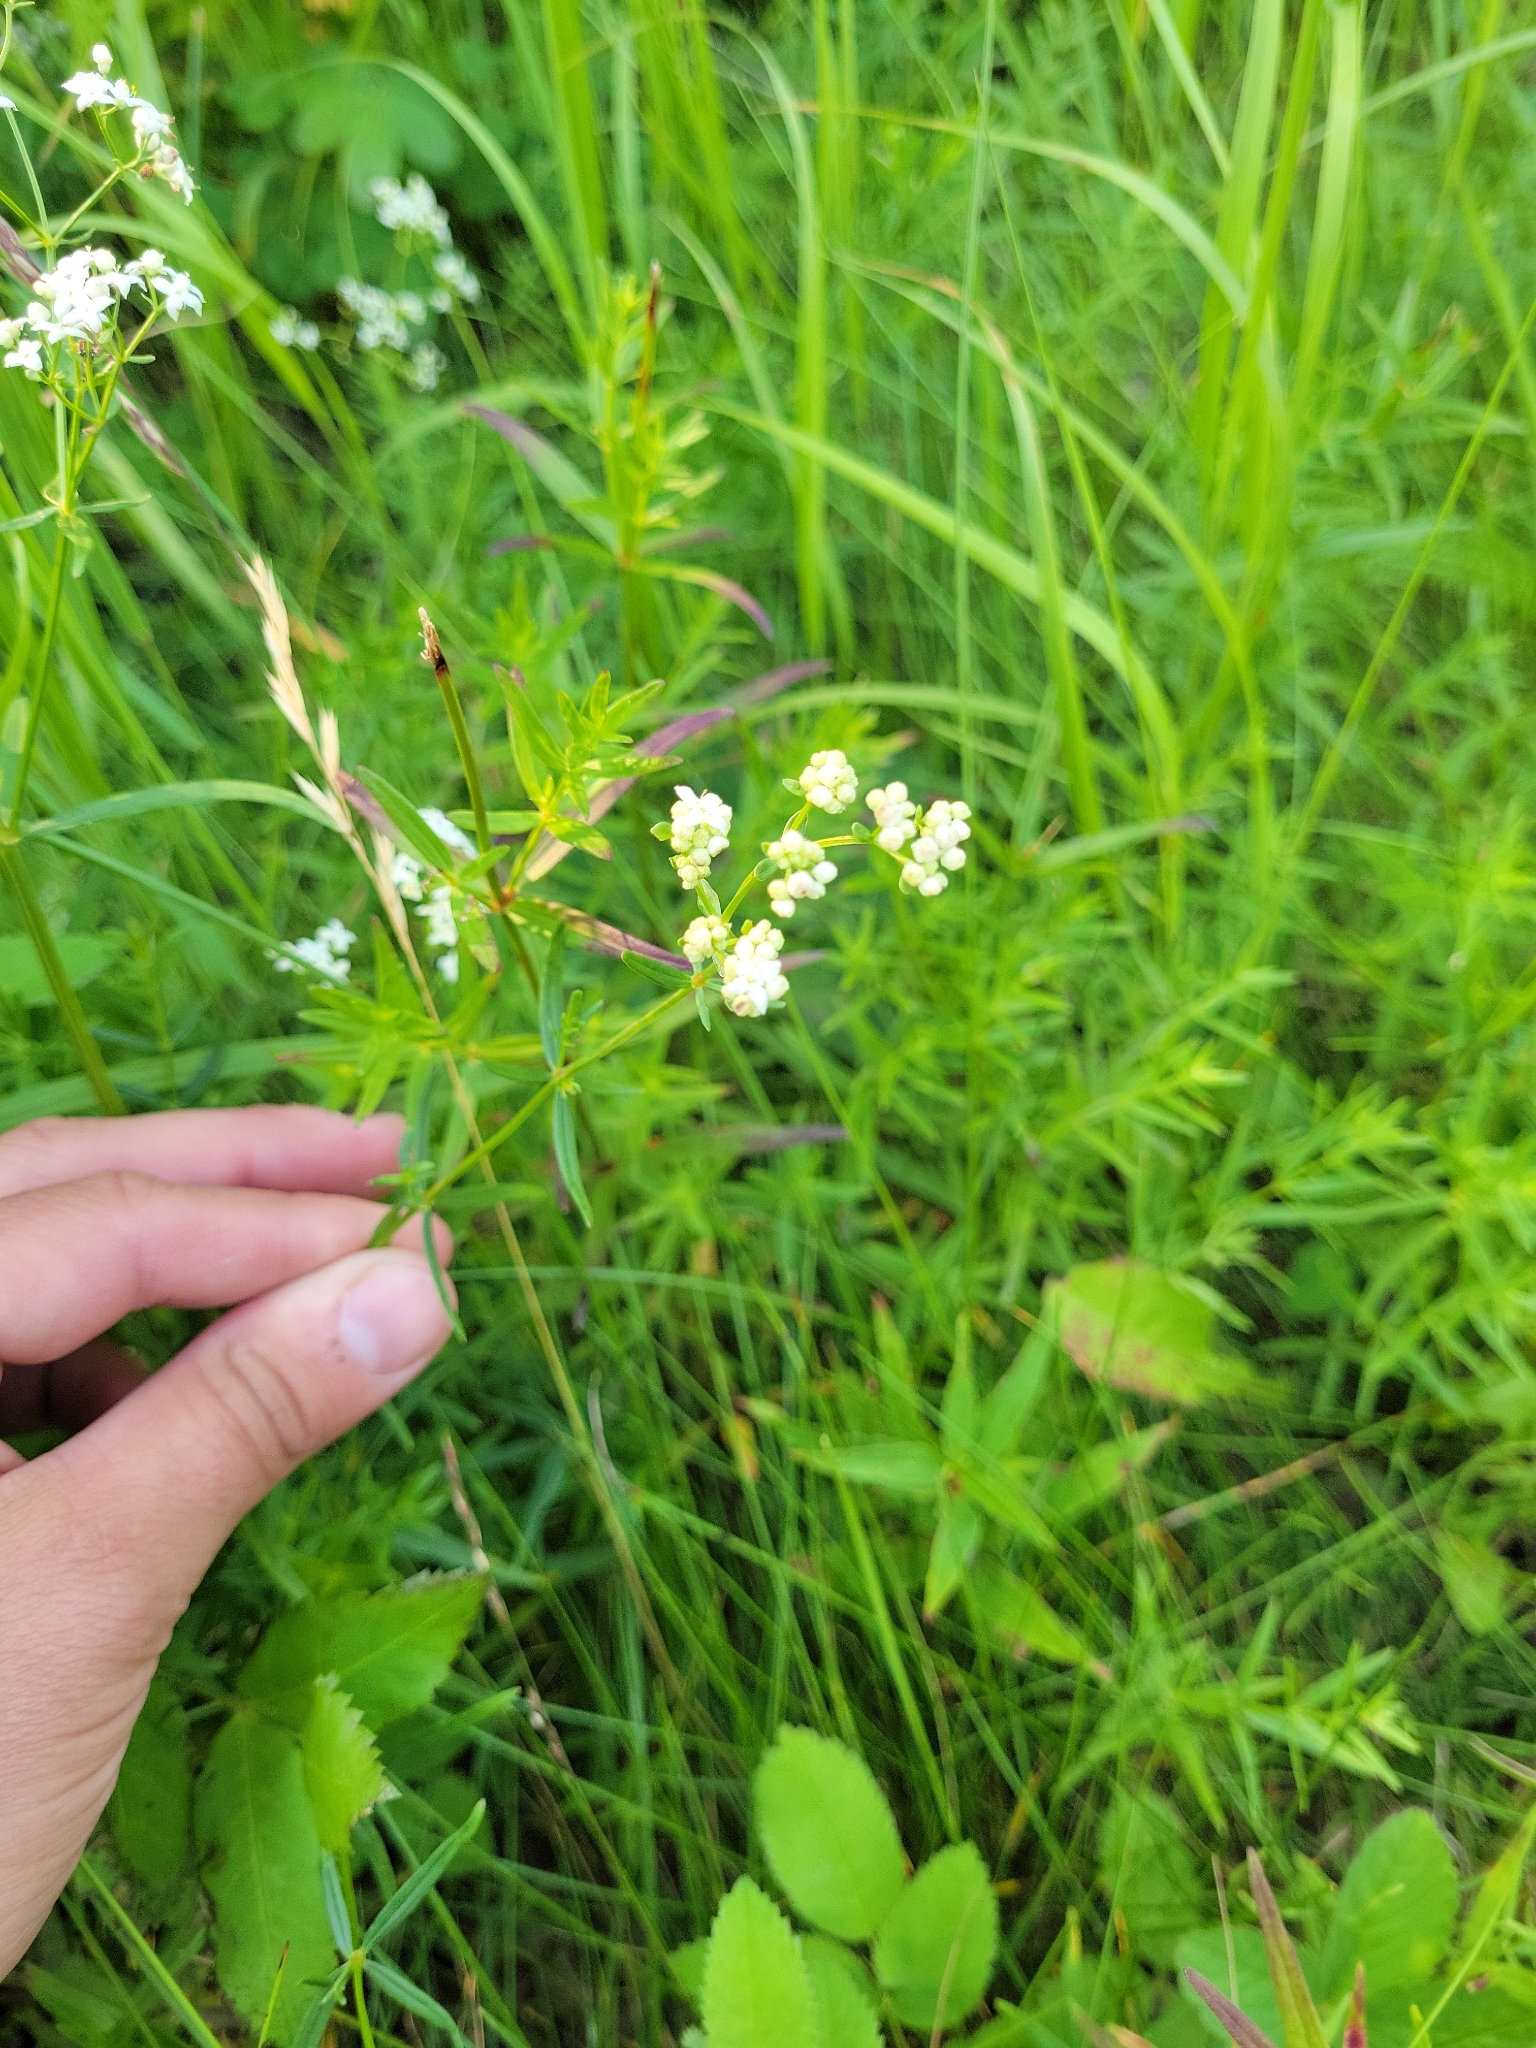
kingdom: Plantae
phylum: Tracheophyta
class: Magnoliopsida
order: Gentianales
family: Rubiaceae
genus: Galium
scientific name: Galium boreale
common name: Northern bedstraw
